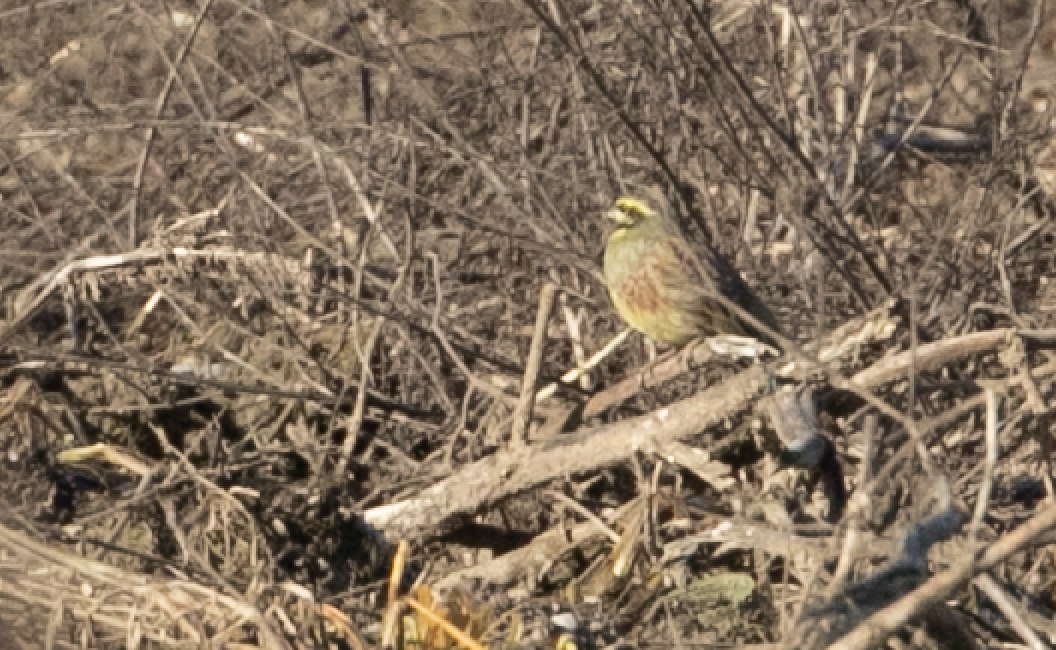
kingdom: Animalia
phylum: Chordata
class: Aves
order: Passeriformes
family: Emberizidae
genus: Emberiza
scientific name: Emberiza cirlus
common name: Cirl bunting
